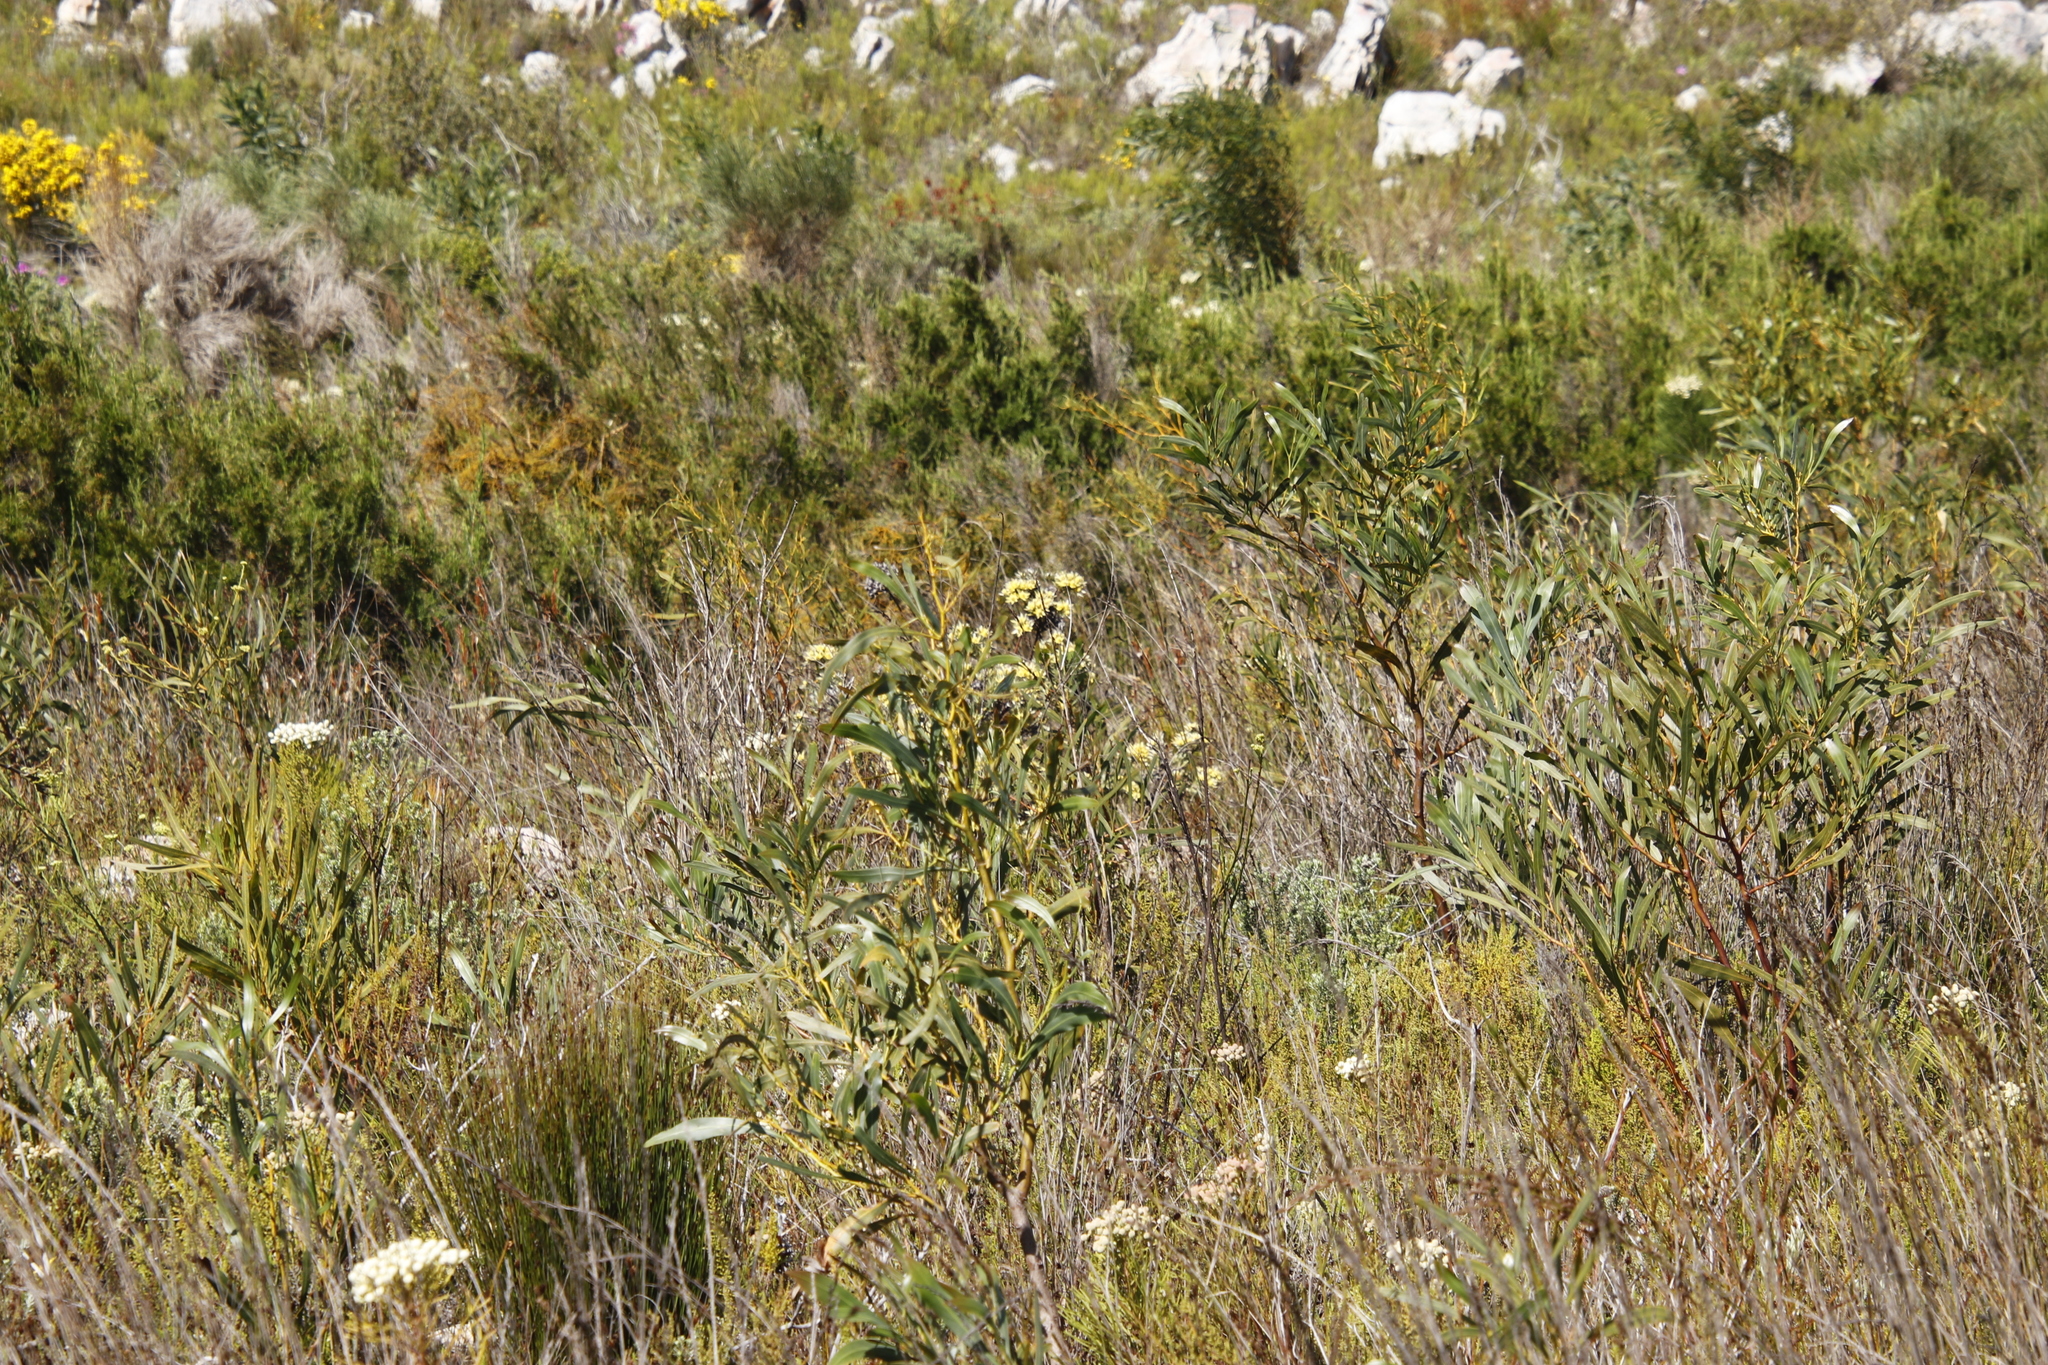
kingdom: Plantae
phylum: Tracheophyta
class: Magnoliopsida
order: Fabales
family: Fabaceae
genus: Acacia
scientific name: Acacia saligna
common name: Orange wattle
